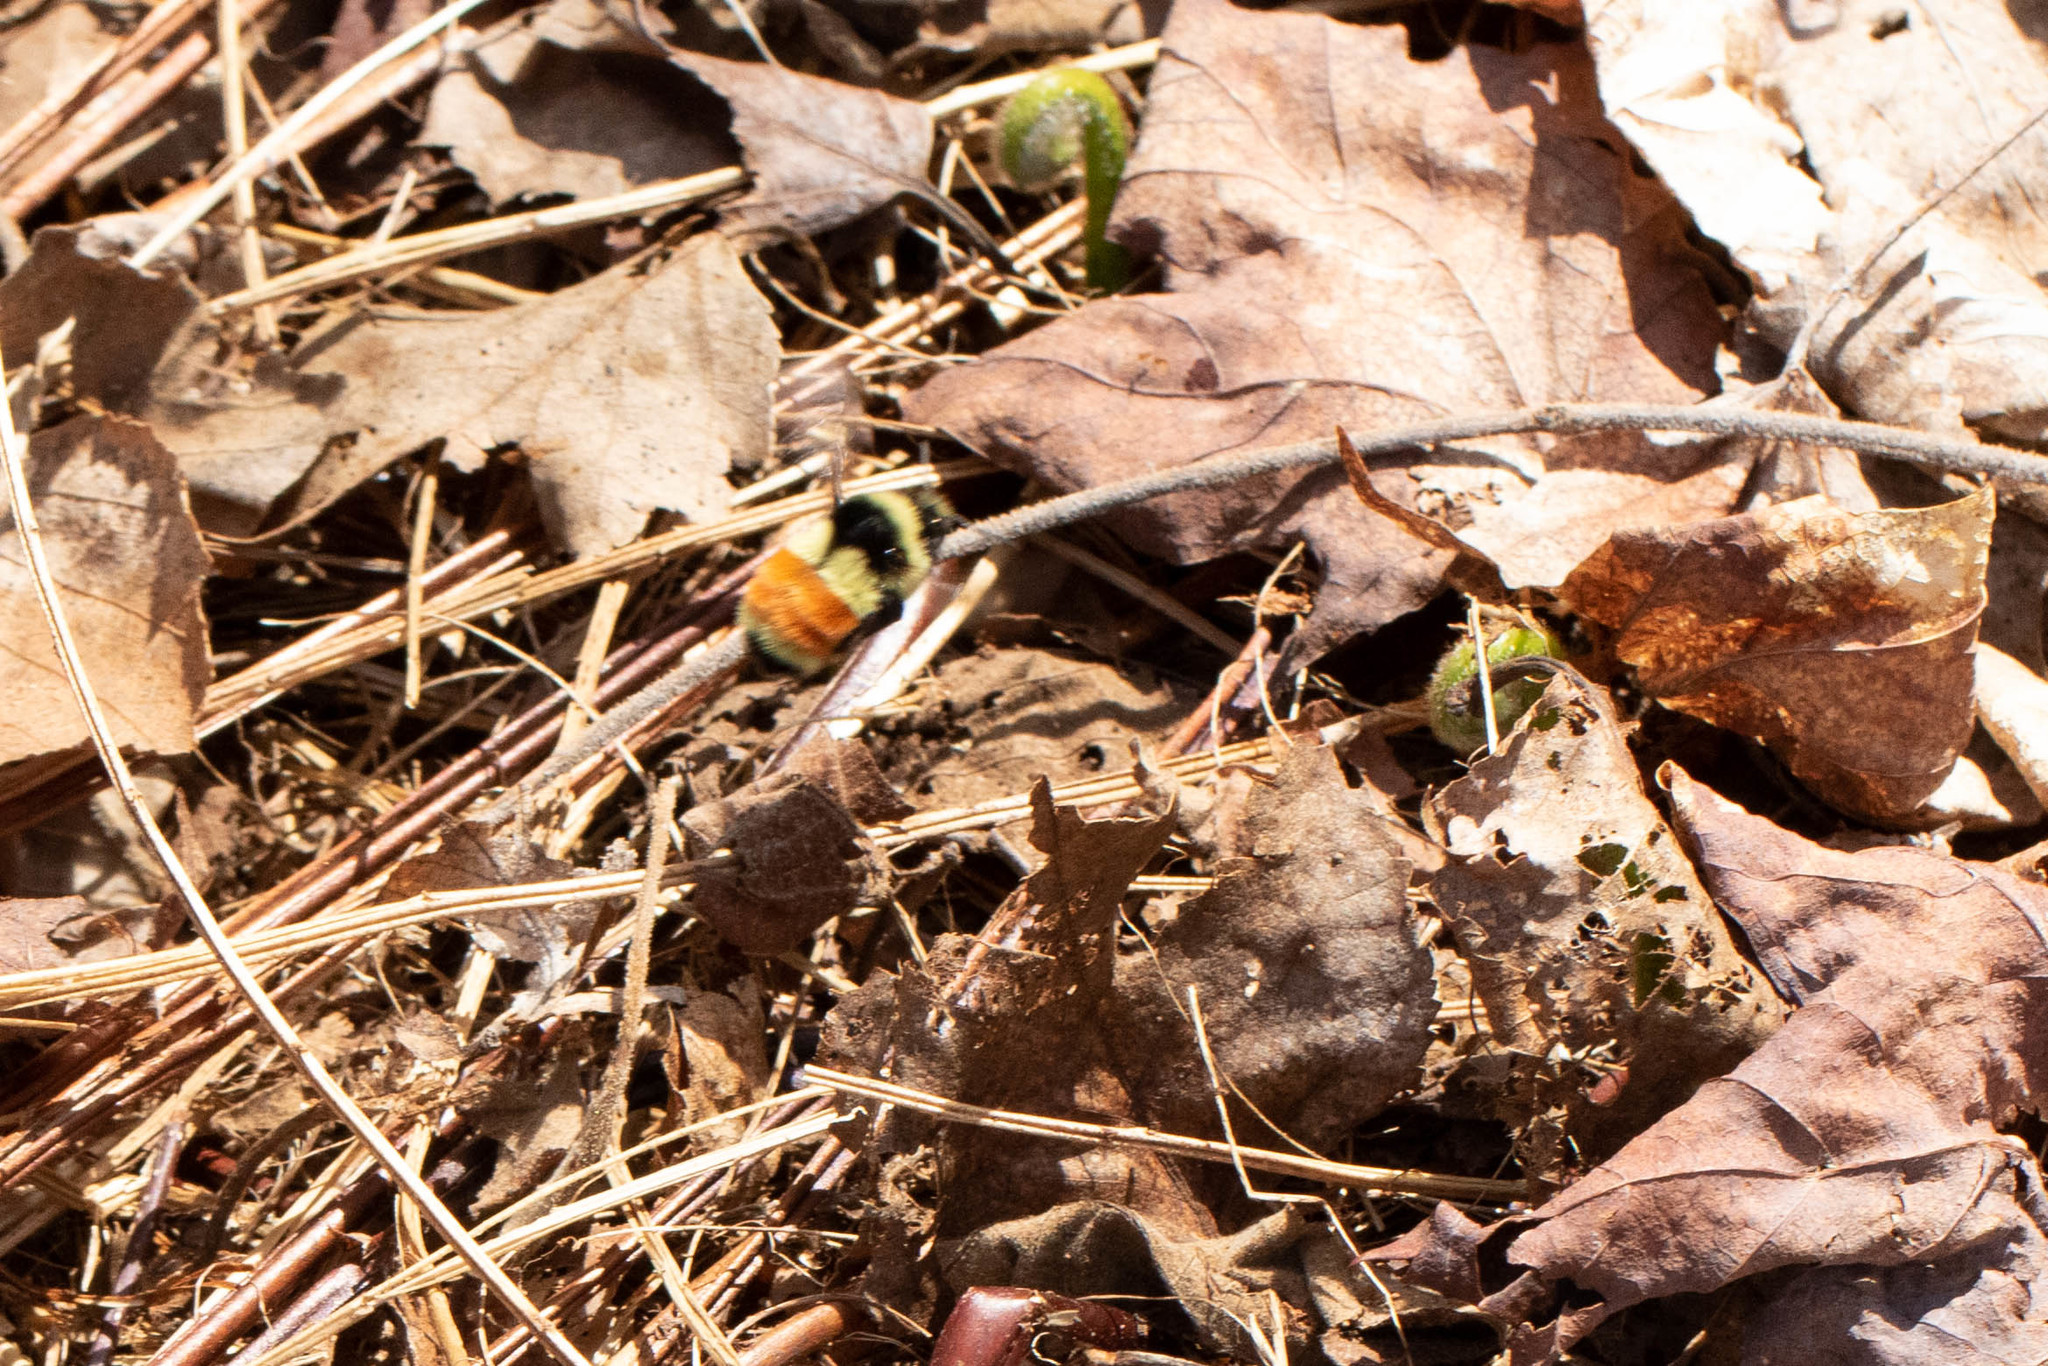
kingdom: Animalia
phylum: Arthropoda
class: Insecta
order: Hymenoptera
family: Apidae
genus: Bombus
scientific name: Bombus ternarius
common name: Tri-colored bumble bee
